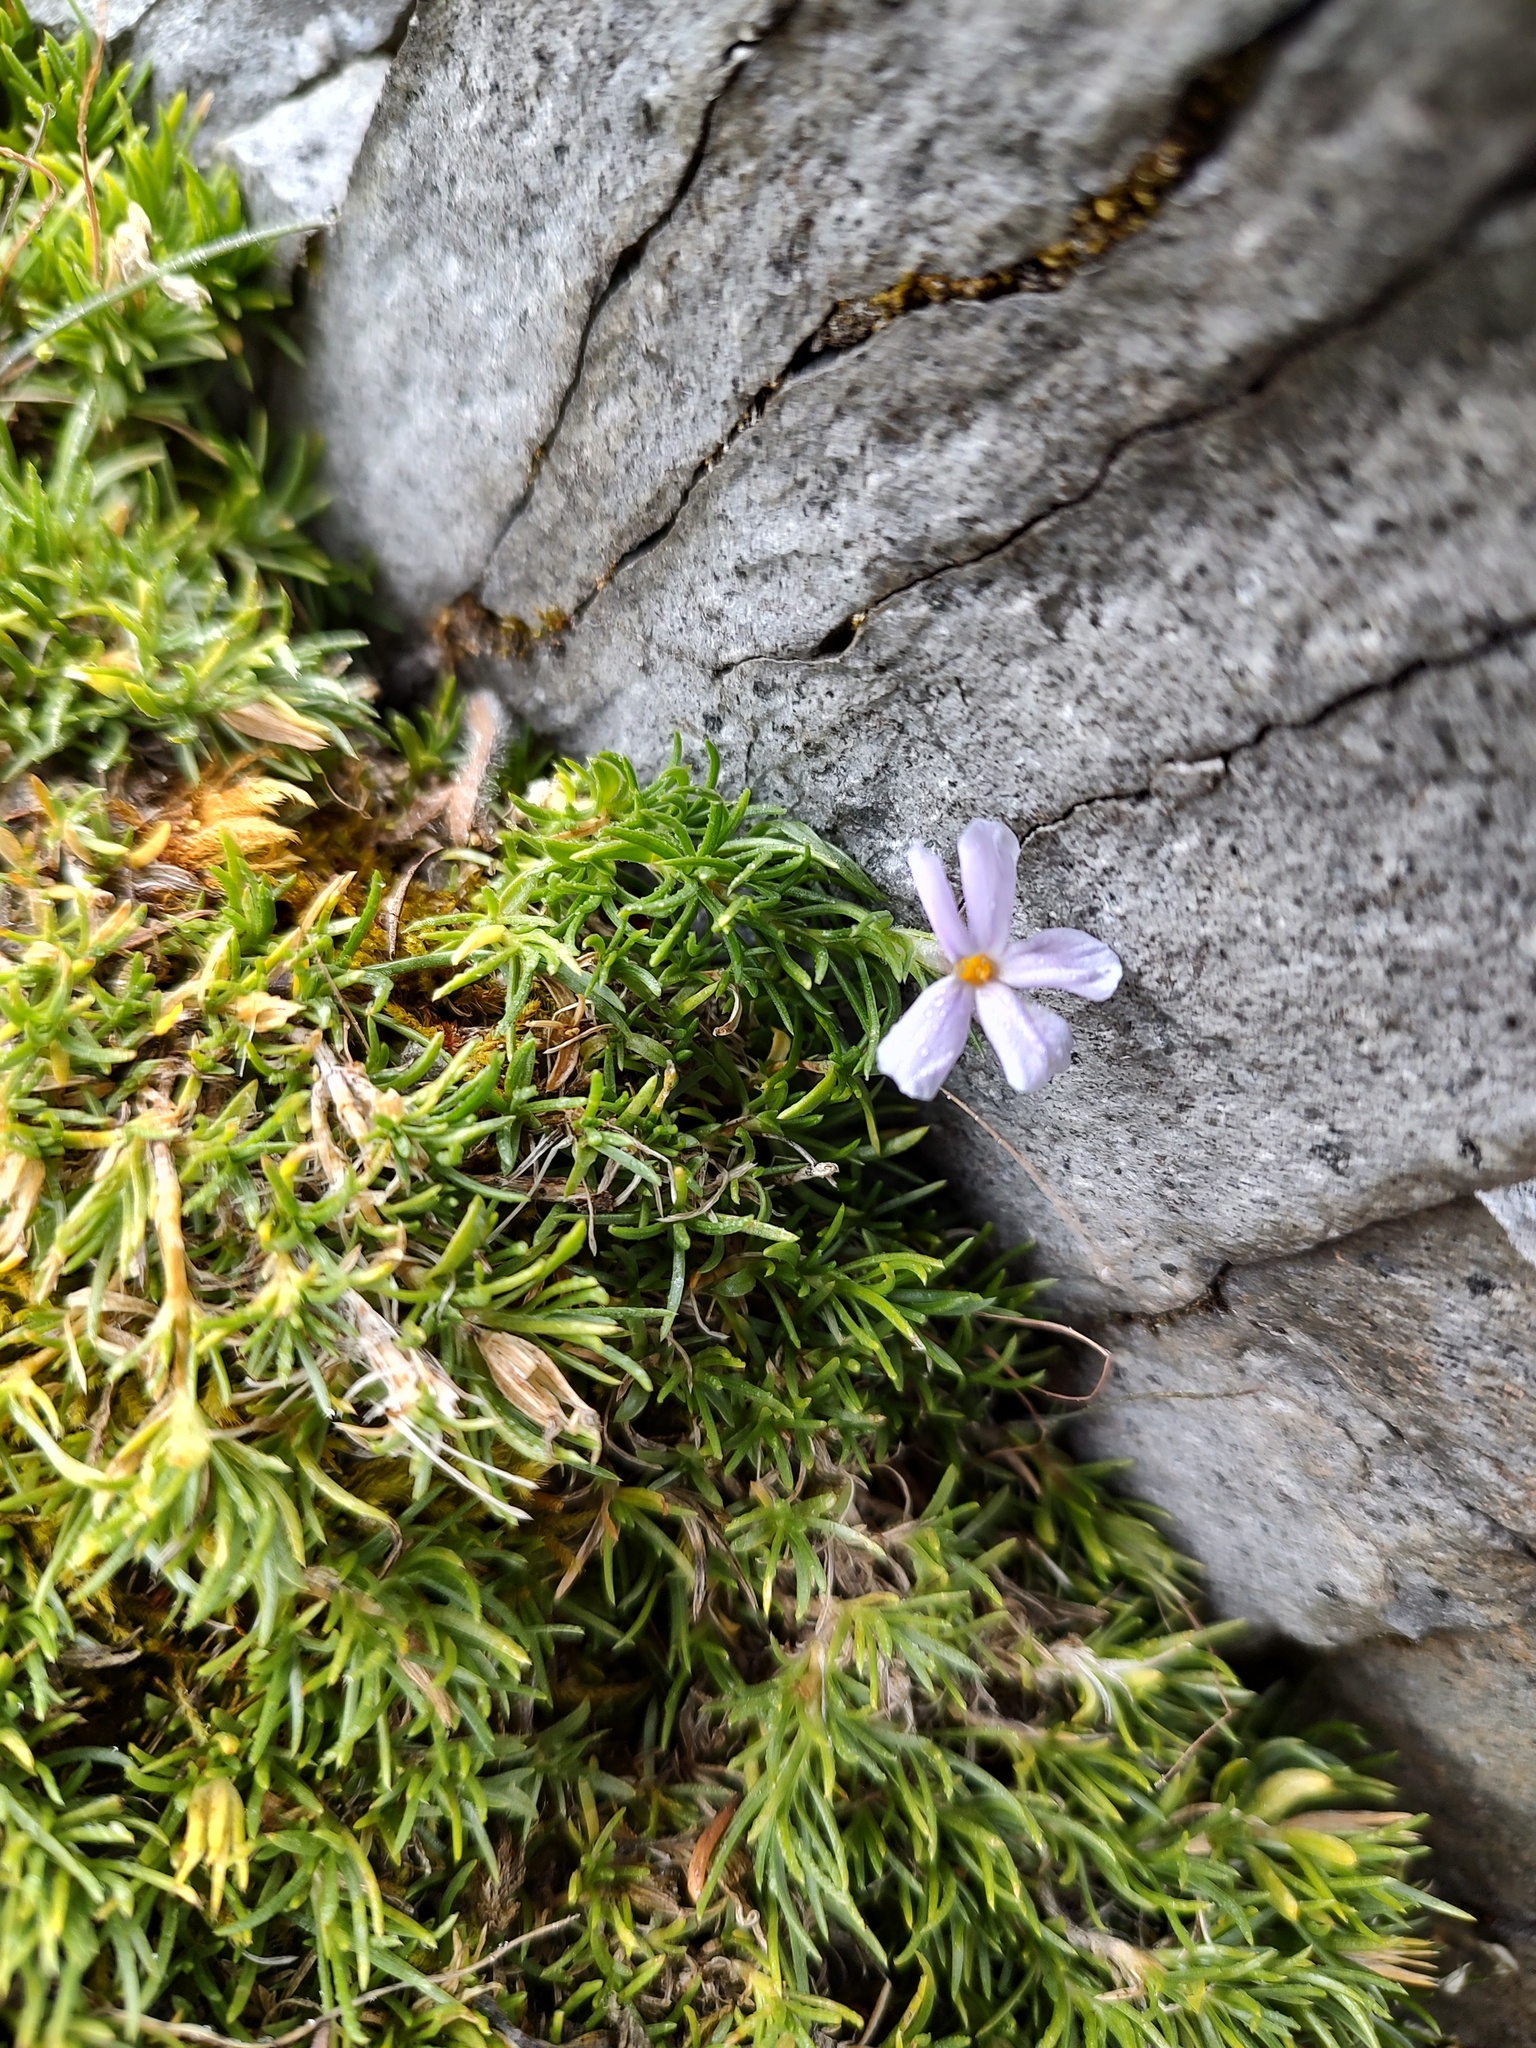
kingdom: Plantae
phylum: Tracheophyta
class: Magnoliopsida
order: Ericales
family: Polemoniaceae
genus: Phlox
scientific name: Phlox diffusa
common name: Mat phlox
